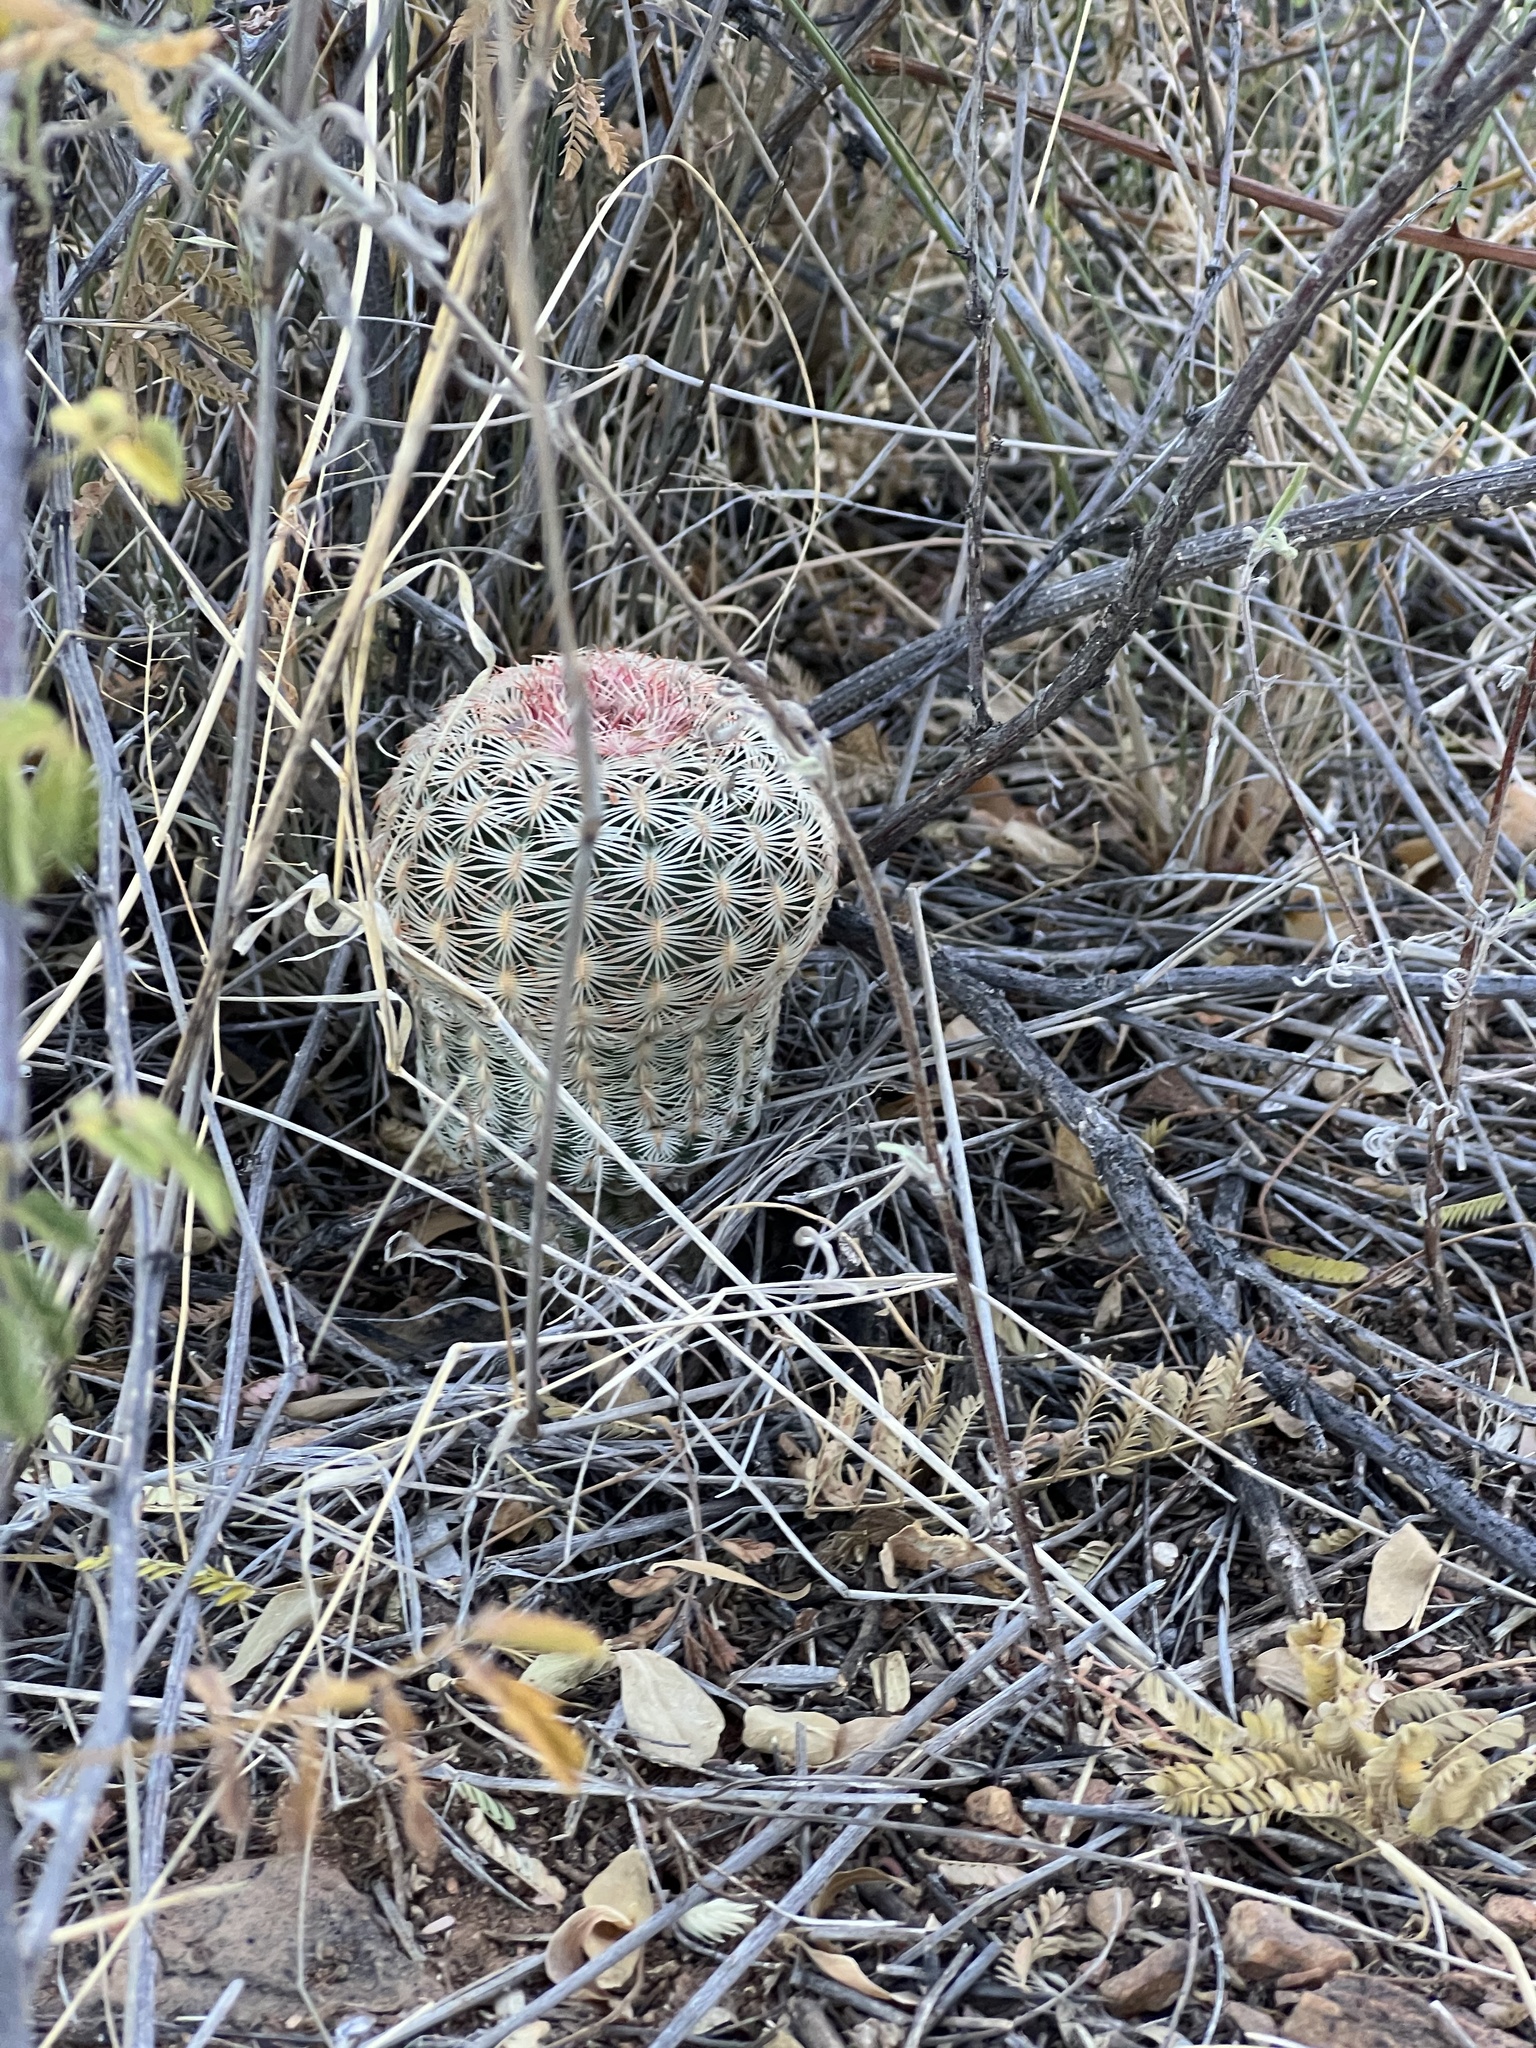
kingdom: Plantae
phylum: Tracheophyta
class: Magnoliopsida
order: Caryophyllales
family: Cactaceae
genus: Echinocereus
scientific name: Echinocereus rigidissimus
